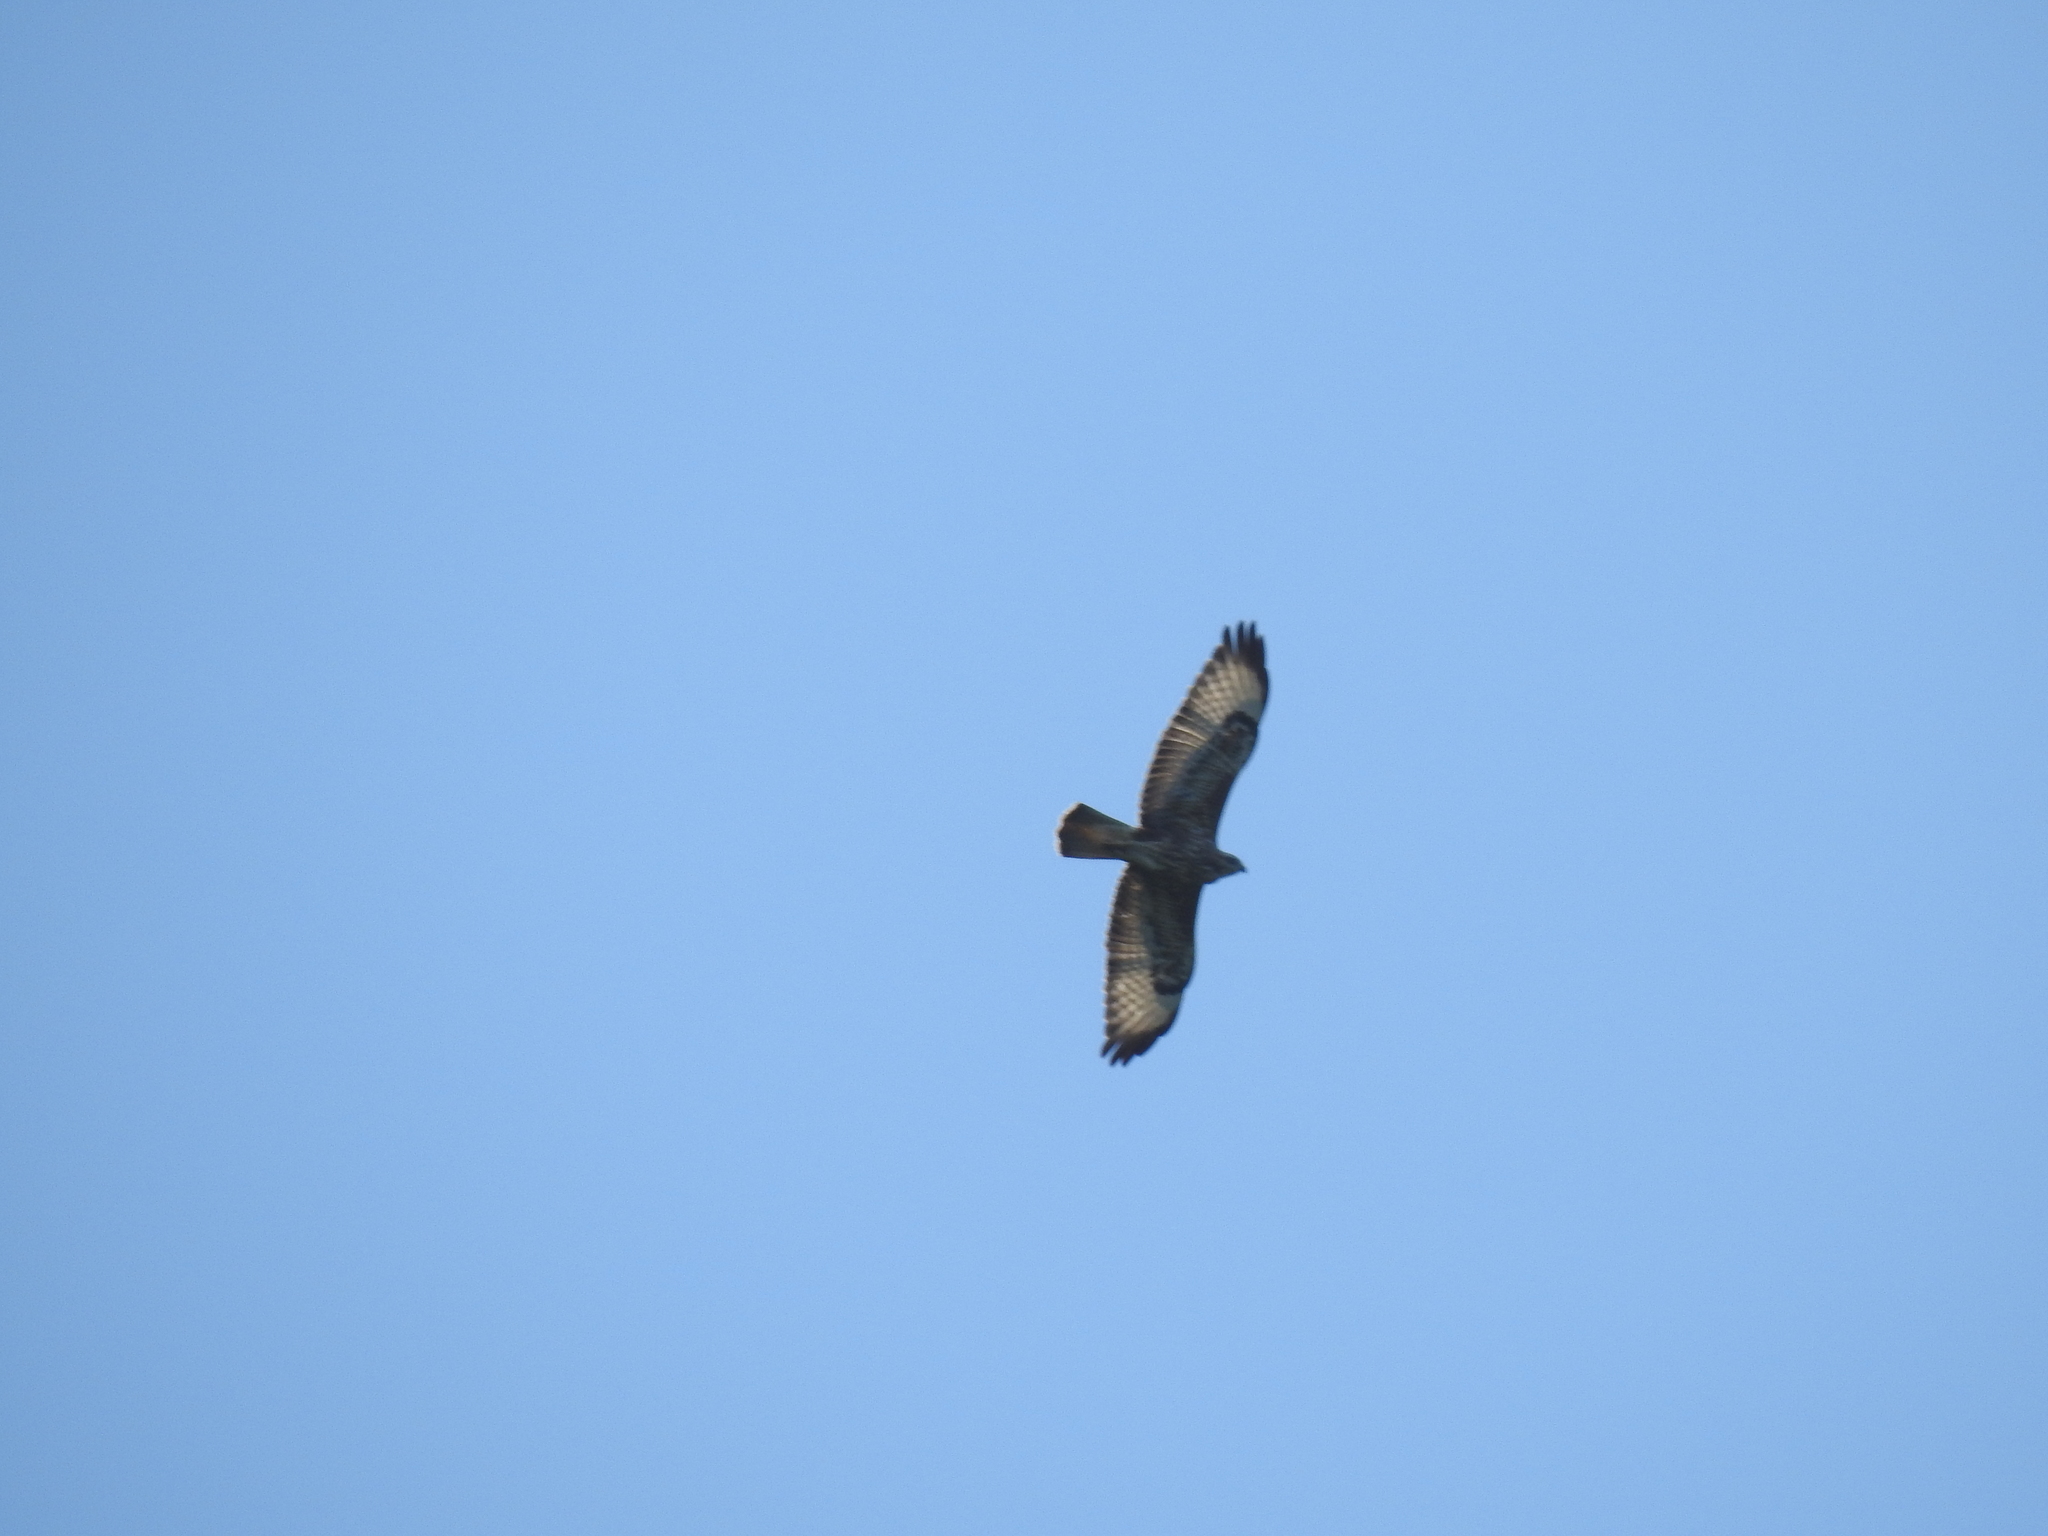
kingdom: Animalia
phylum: Chordata
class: Aves
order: Accipitriformes
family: Accipitridae
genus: Buteo
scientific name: Buteo rufinus
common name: Long-legged buzzard
